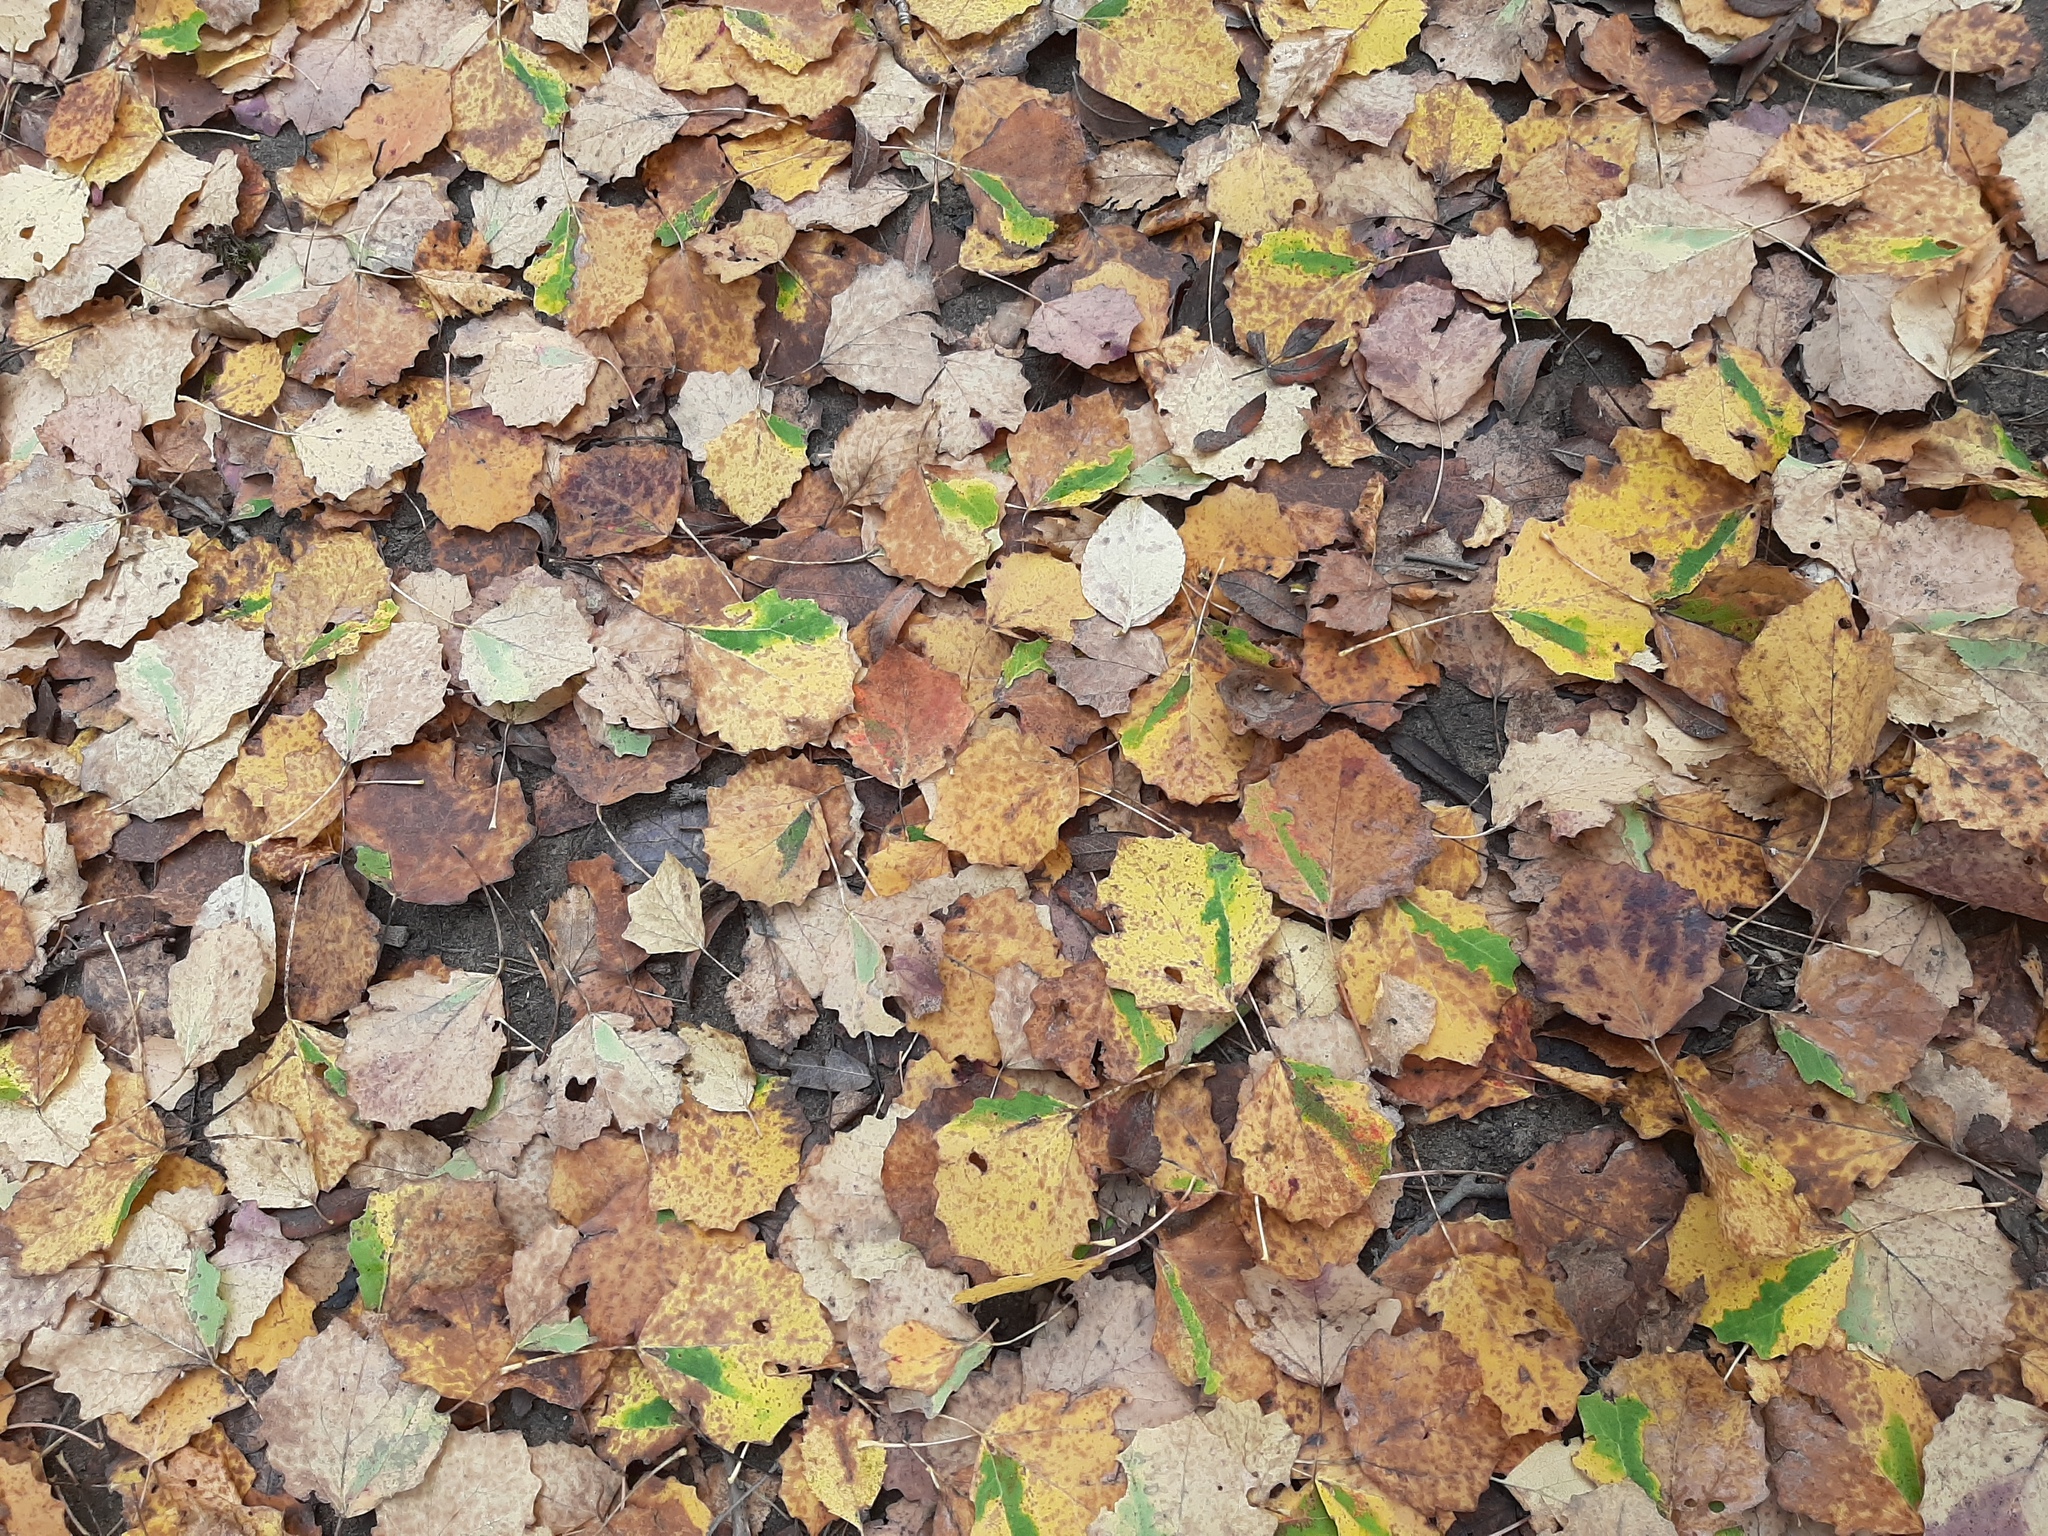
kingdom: Plantae
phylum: Tracheophyta
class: Magnoliopsida
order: Malpighiales
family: Salicaceae
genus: Populus
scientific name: Populus tremula
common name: European aspen
